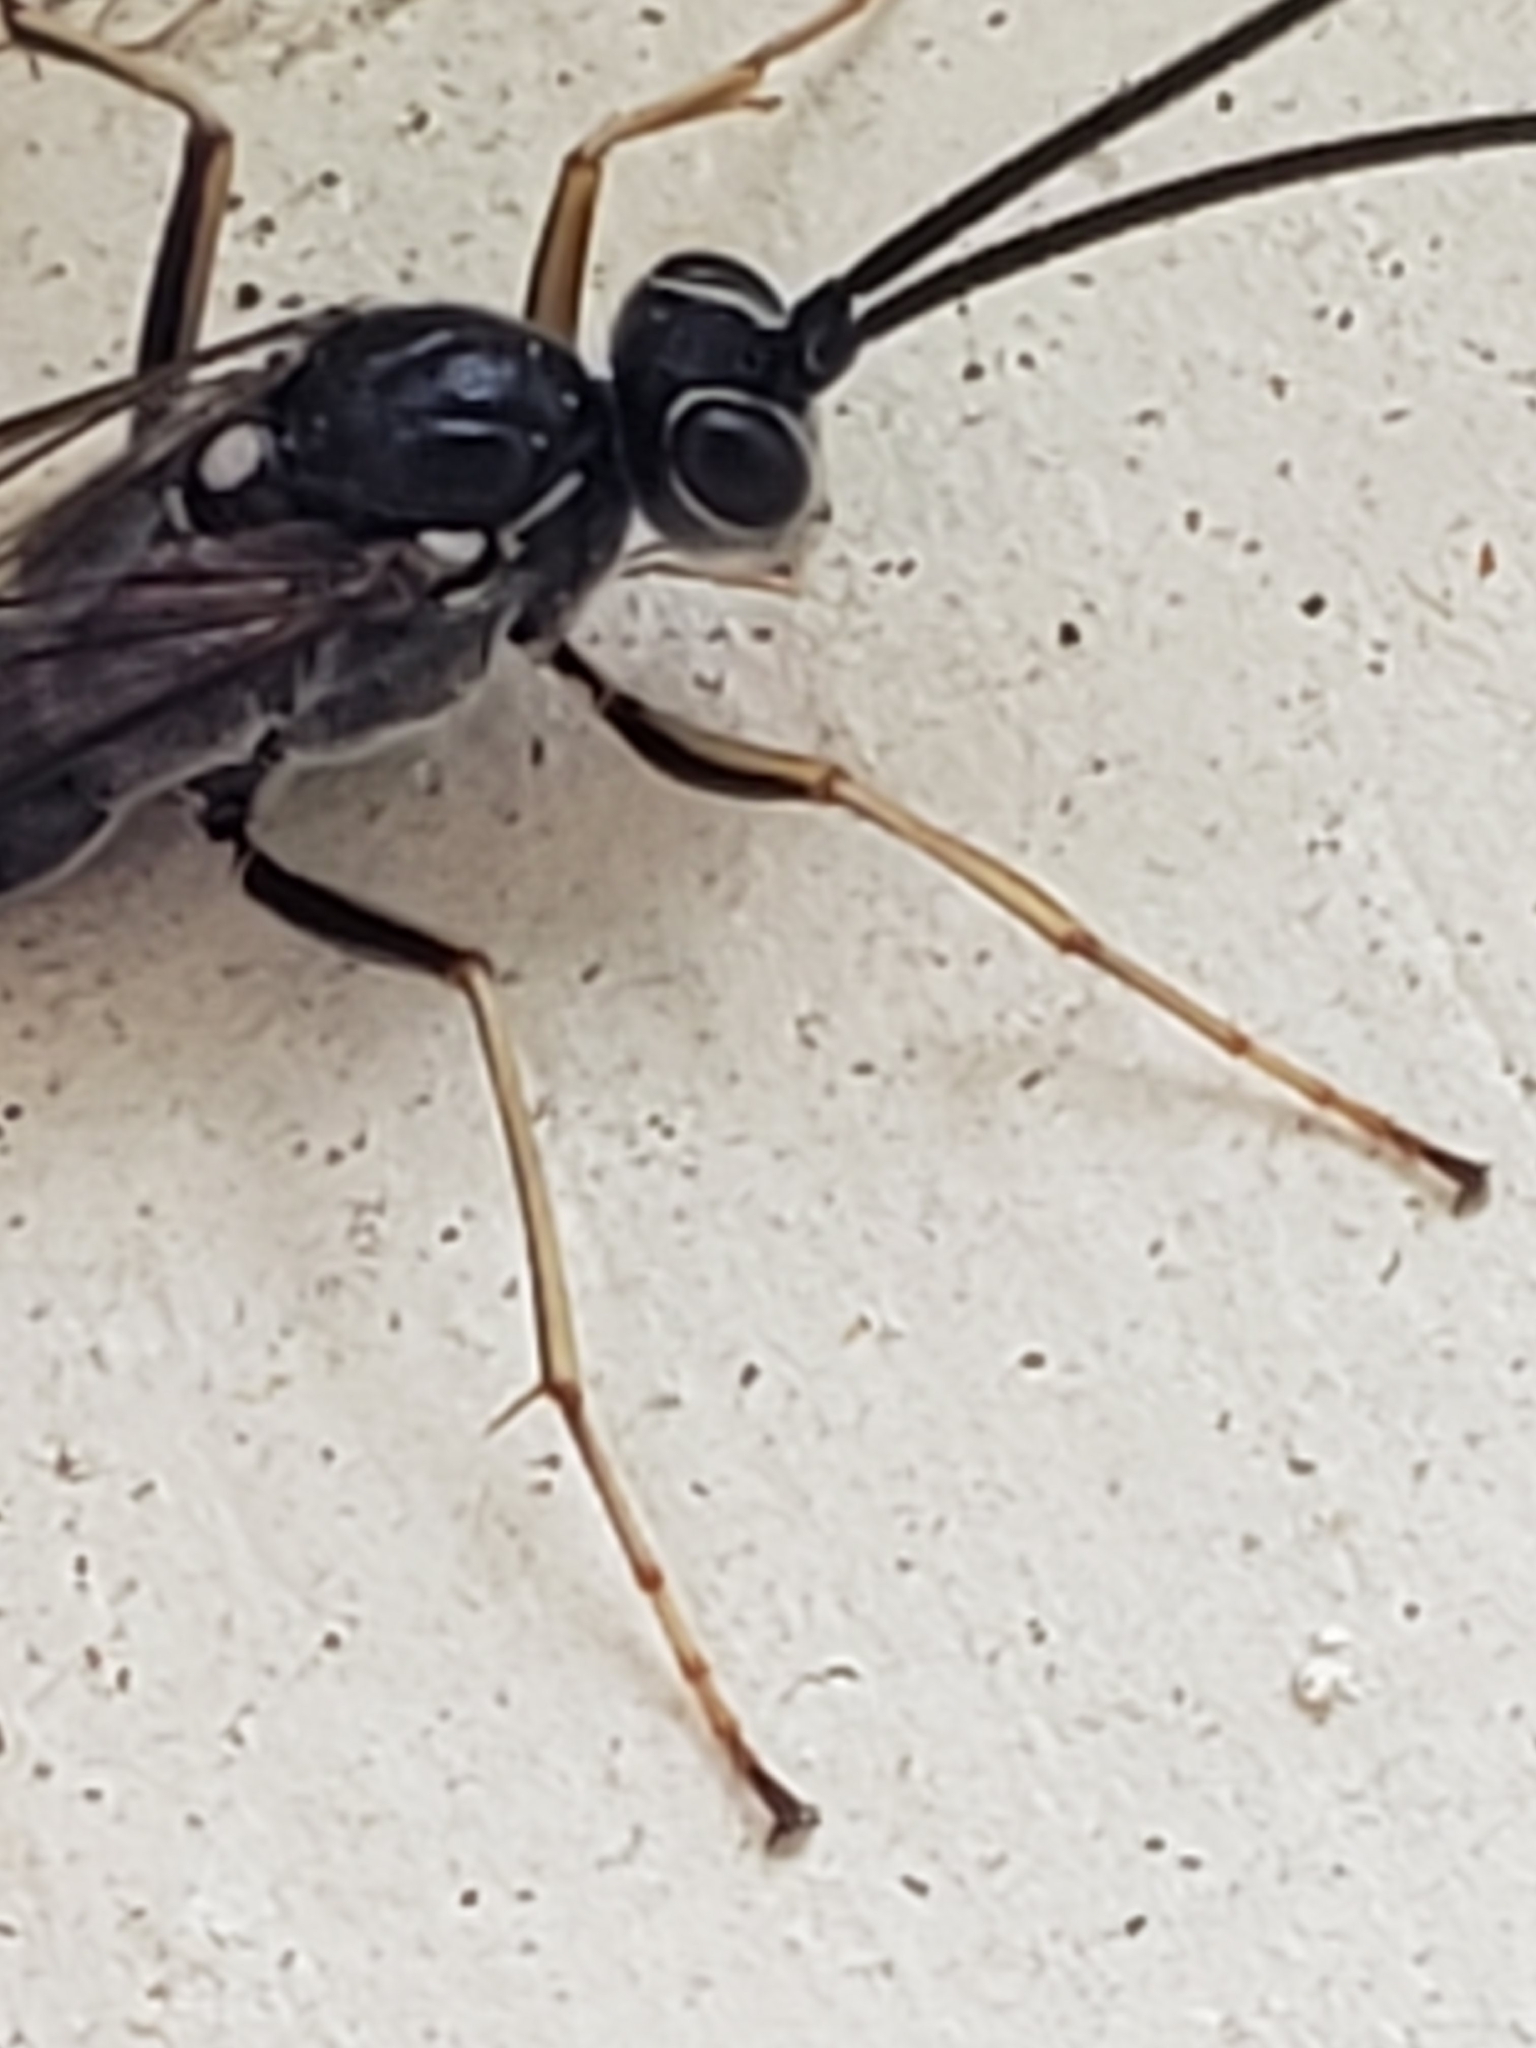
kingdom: Animalia
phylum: Arthropoda
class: Insecta
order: Hymenoptera
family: Ichneumonidae
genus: Cryptus
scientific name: Cryptus albitarsis
